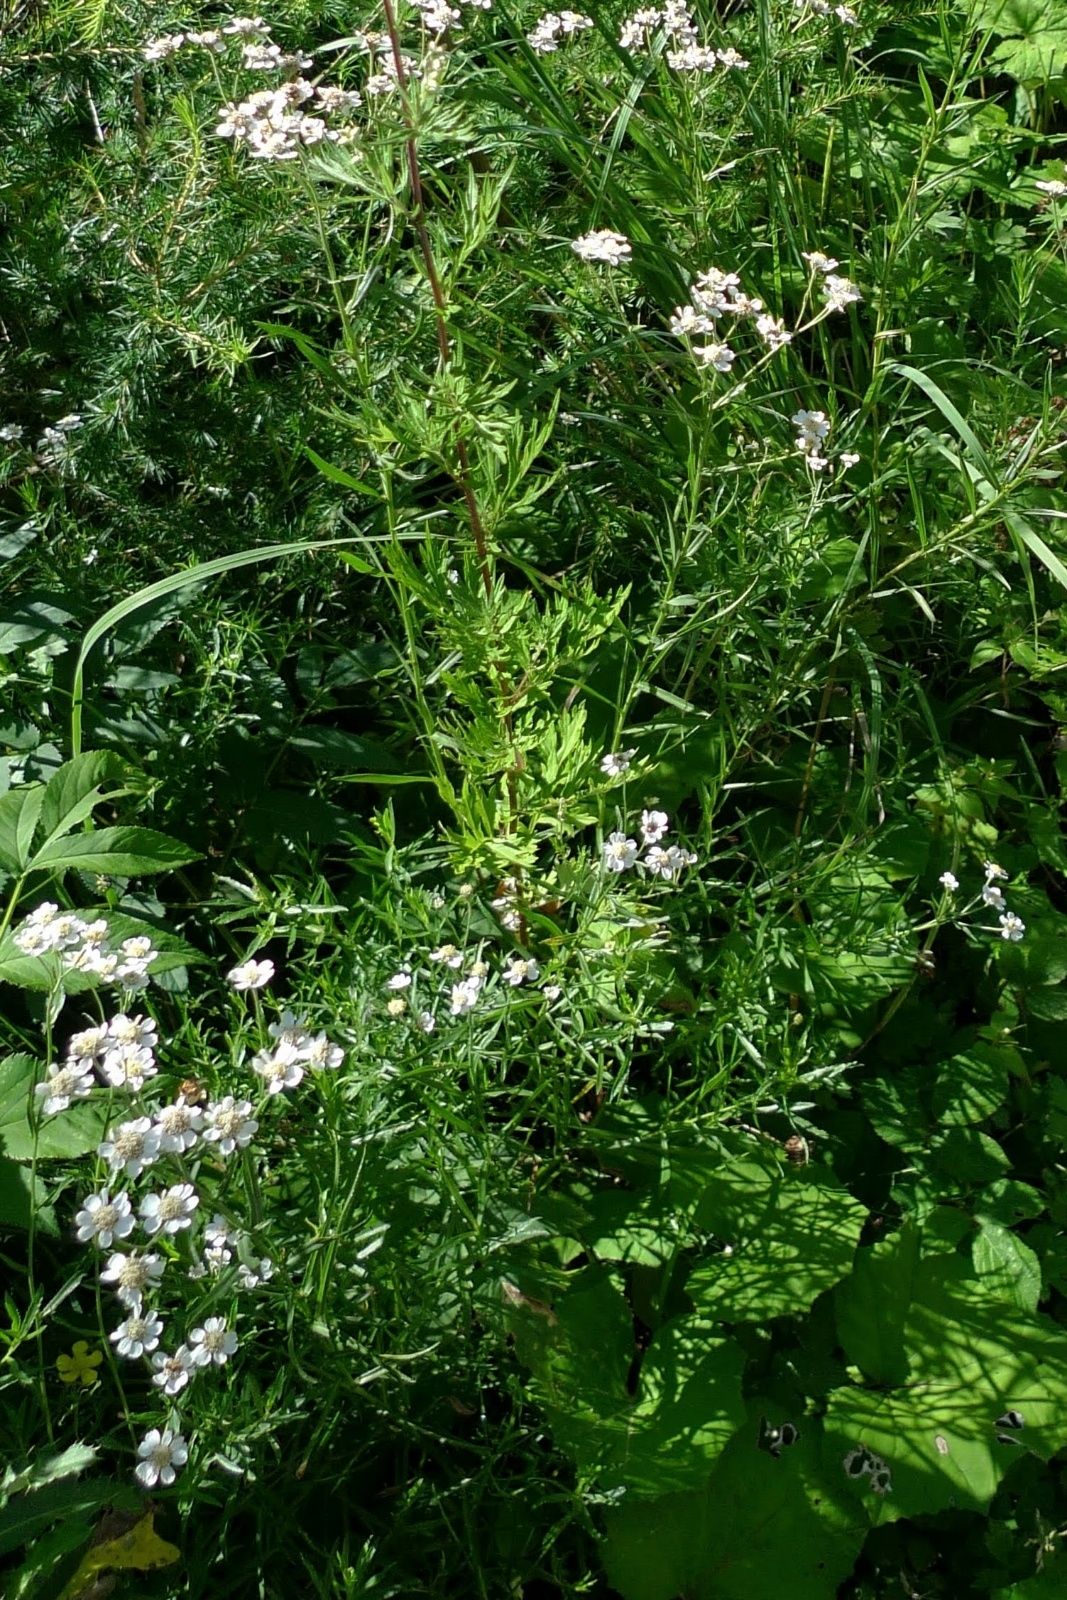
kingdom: Plantae
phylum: Tracheophyta
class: Magnoliopsida
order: Asterales
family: Asteraceae
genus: Achillea
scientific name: Achillea ptarmica
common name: Sneezeweed
